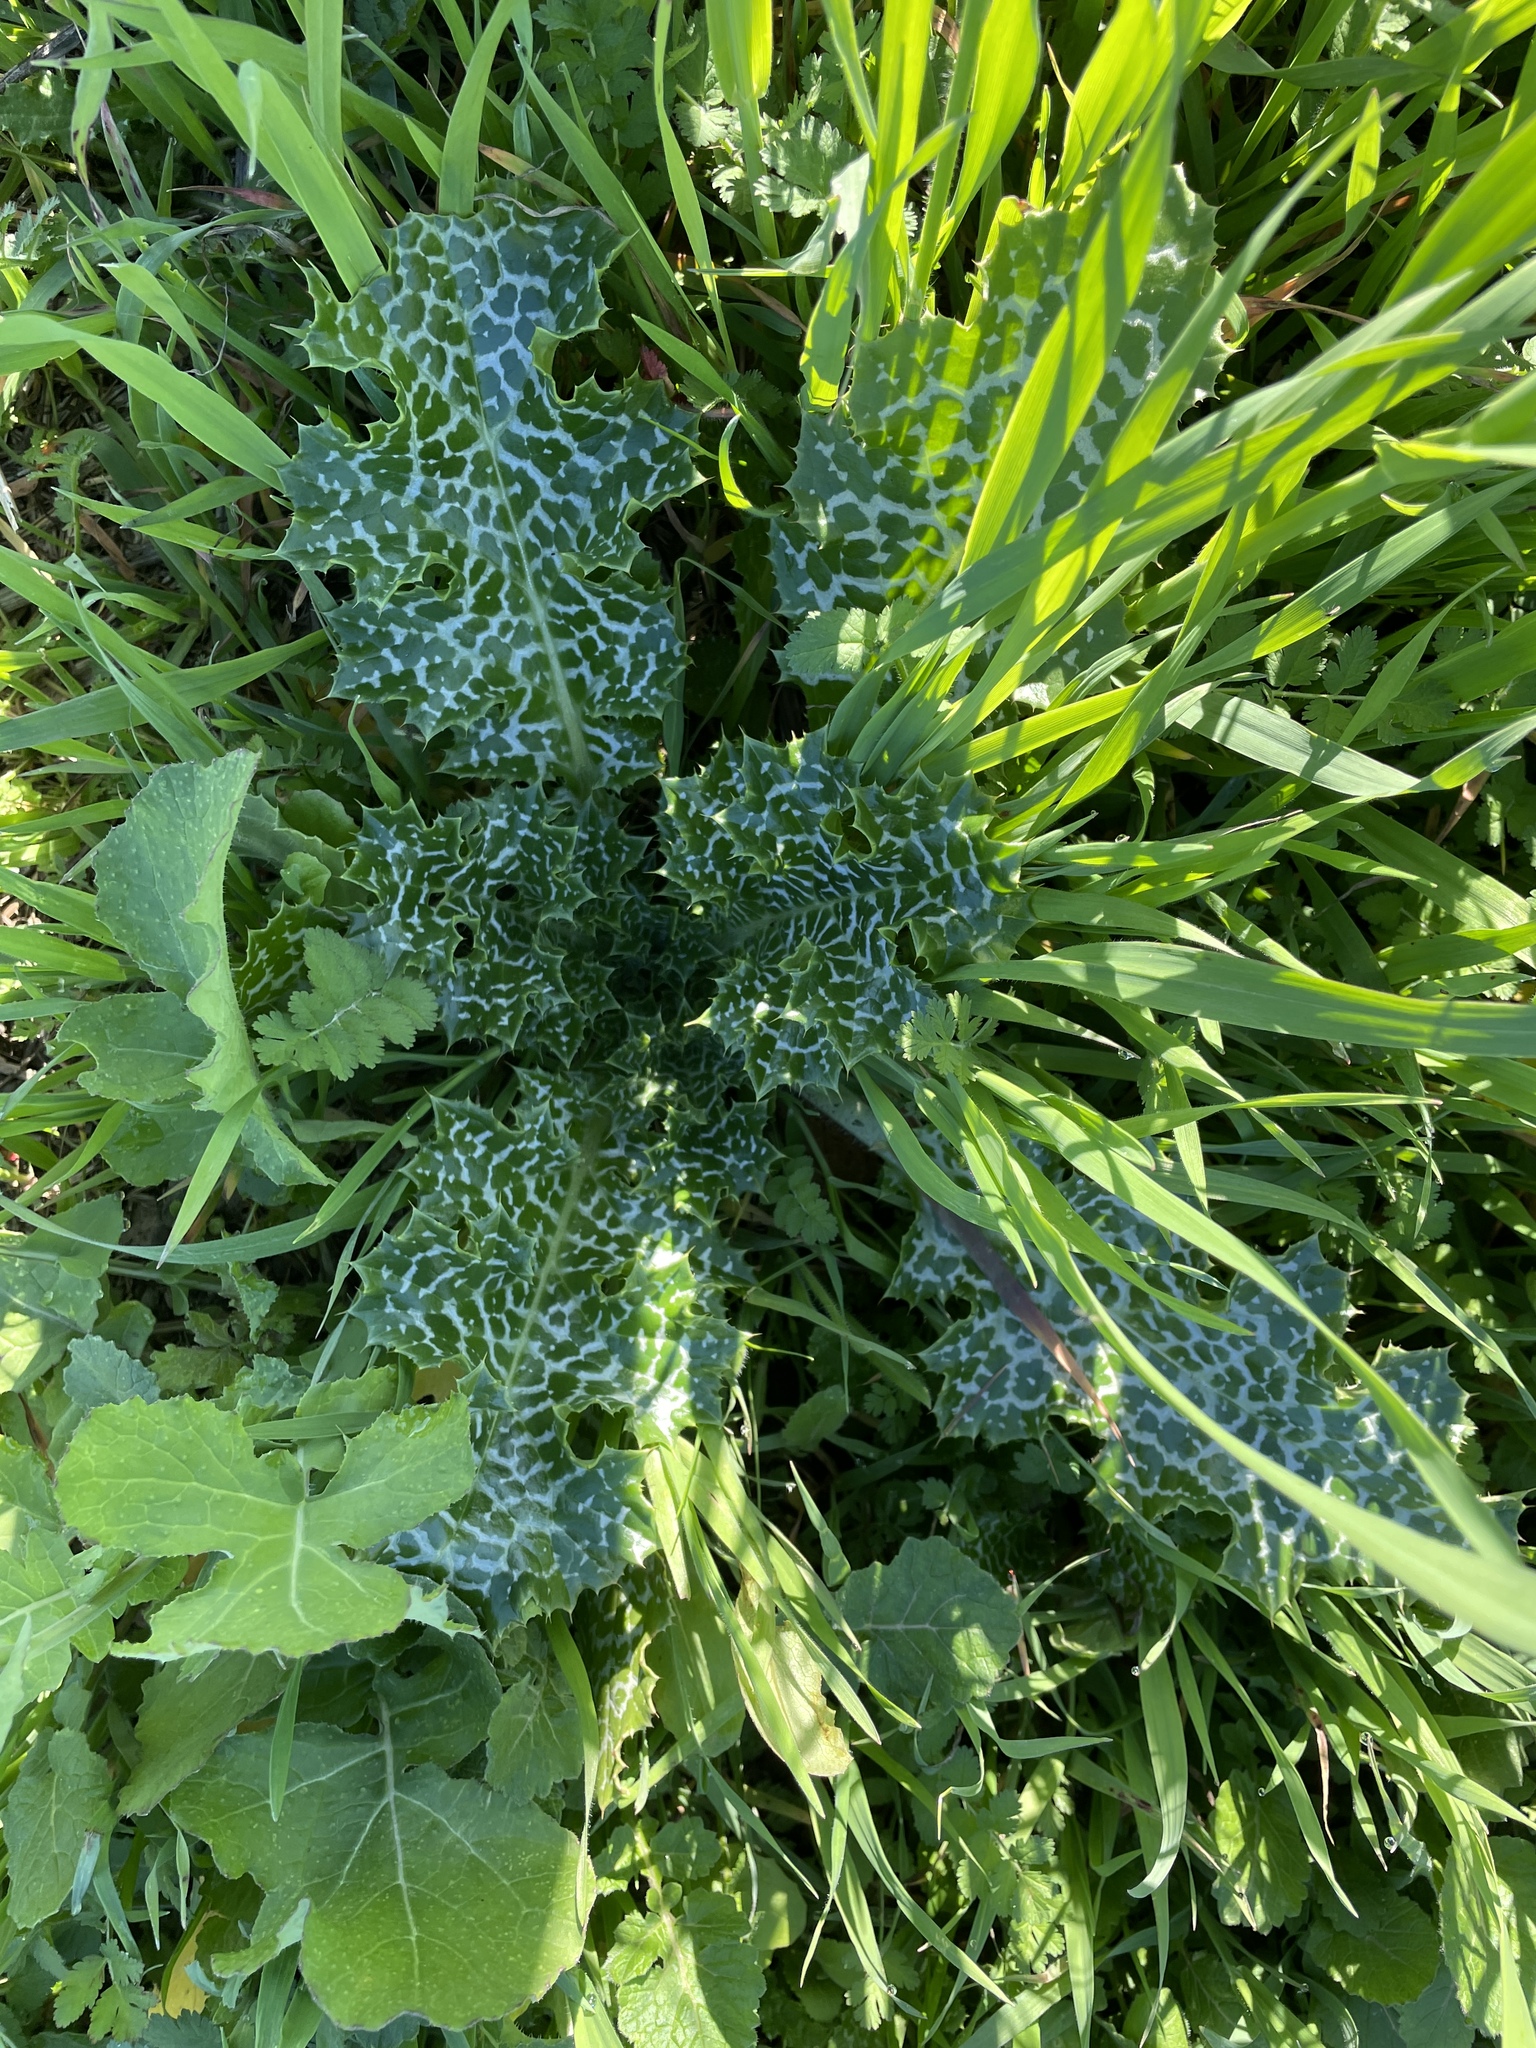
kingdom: Plantae
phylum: Tracheophyta
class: Magnoliopsida
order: Asterales
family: Asteraceae
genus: Silybum
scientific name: Silybum marianum
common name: Milk thistle
